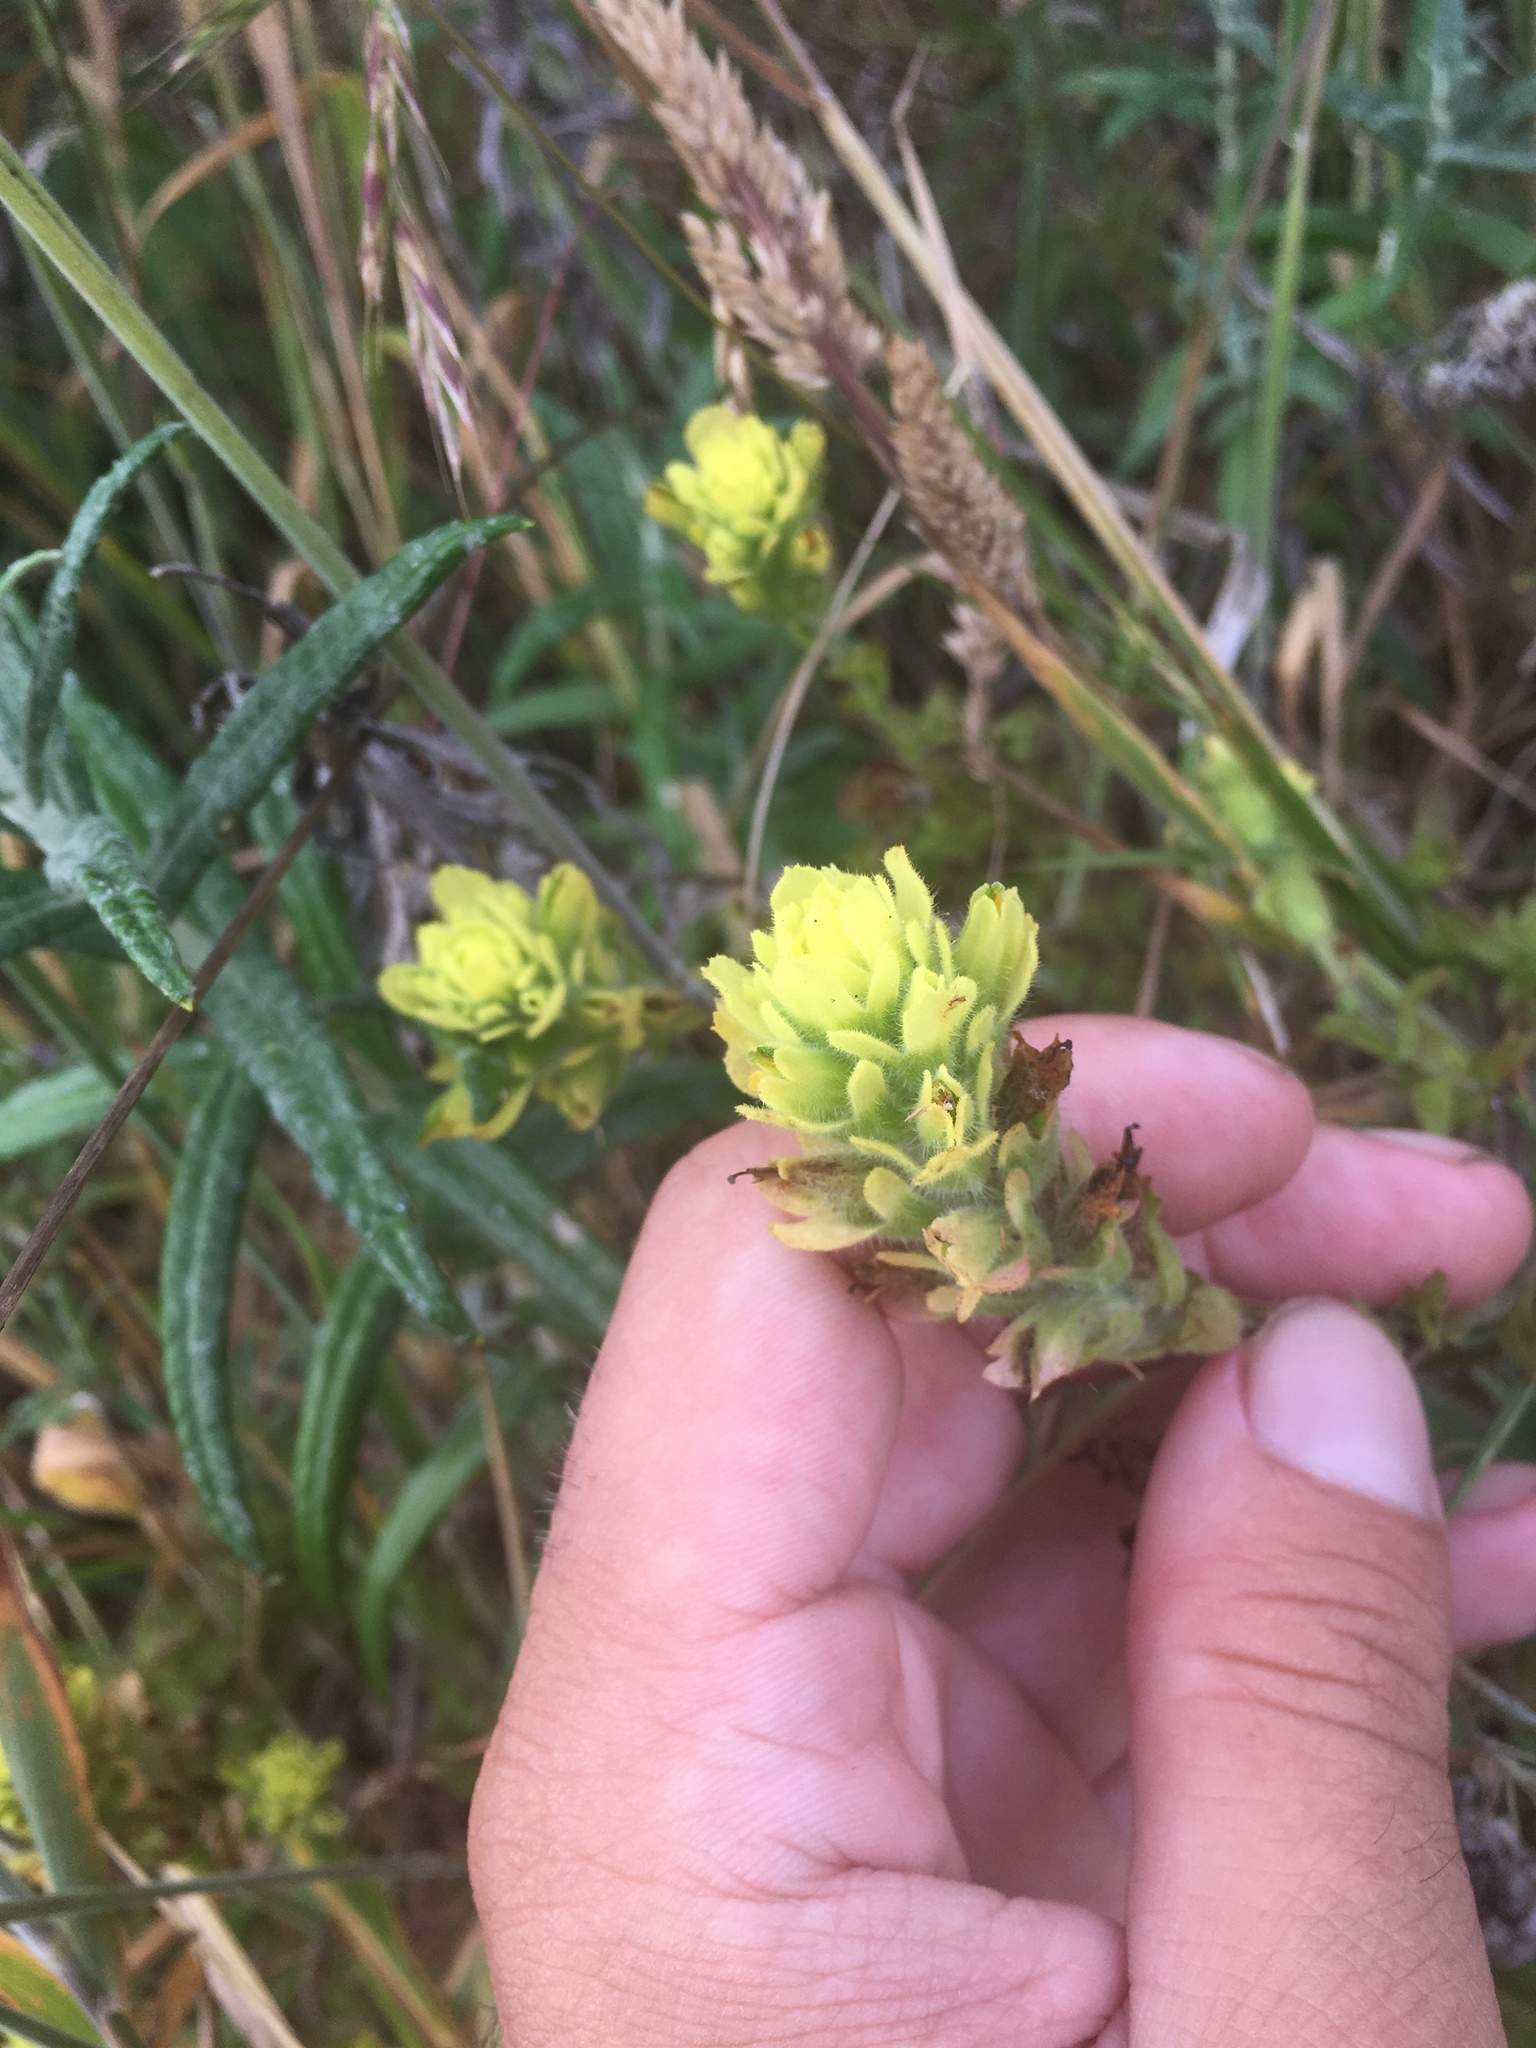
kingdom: Plantae
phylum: Tracheophyta
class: Magnoliopsida
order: Lamiales
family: Orobanchaceae
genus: Castilleja
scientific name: Castilleja wightii
